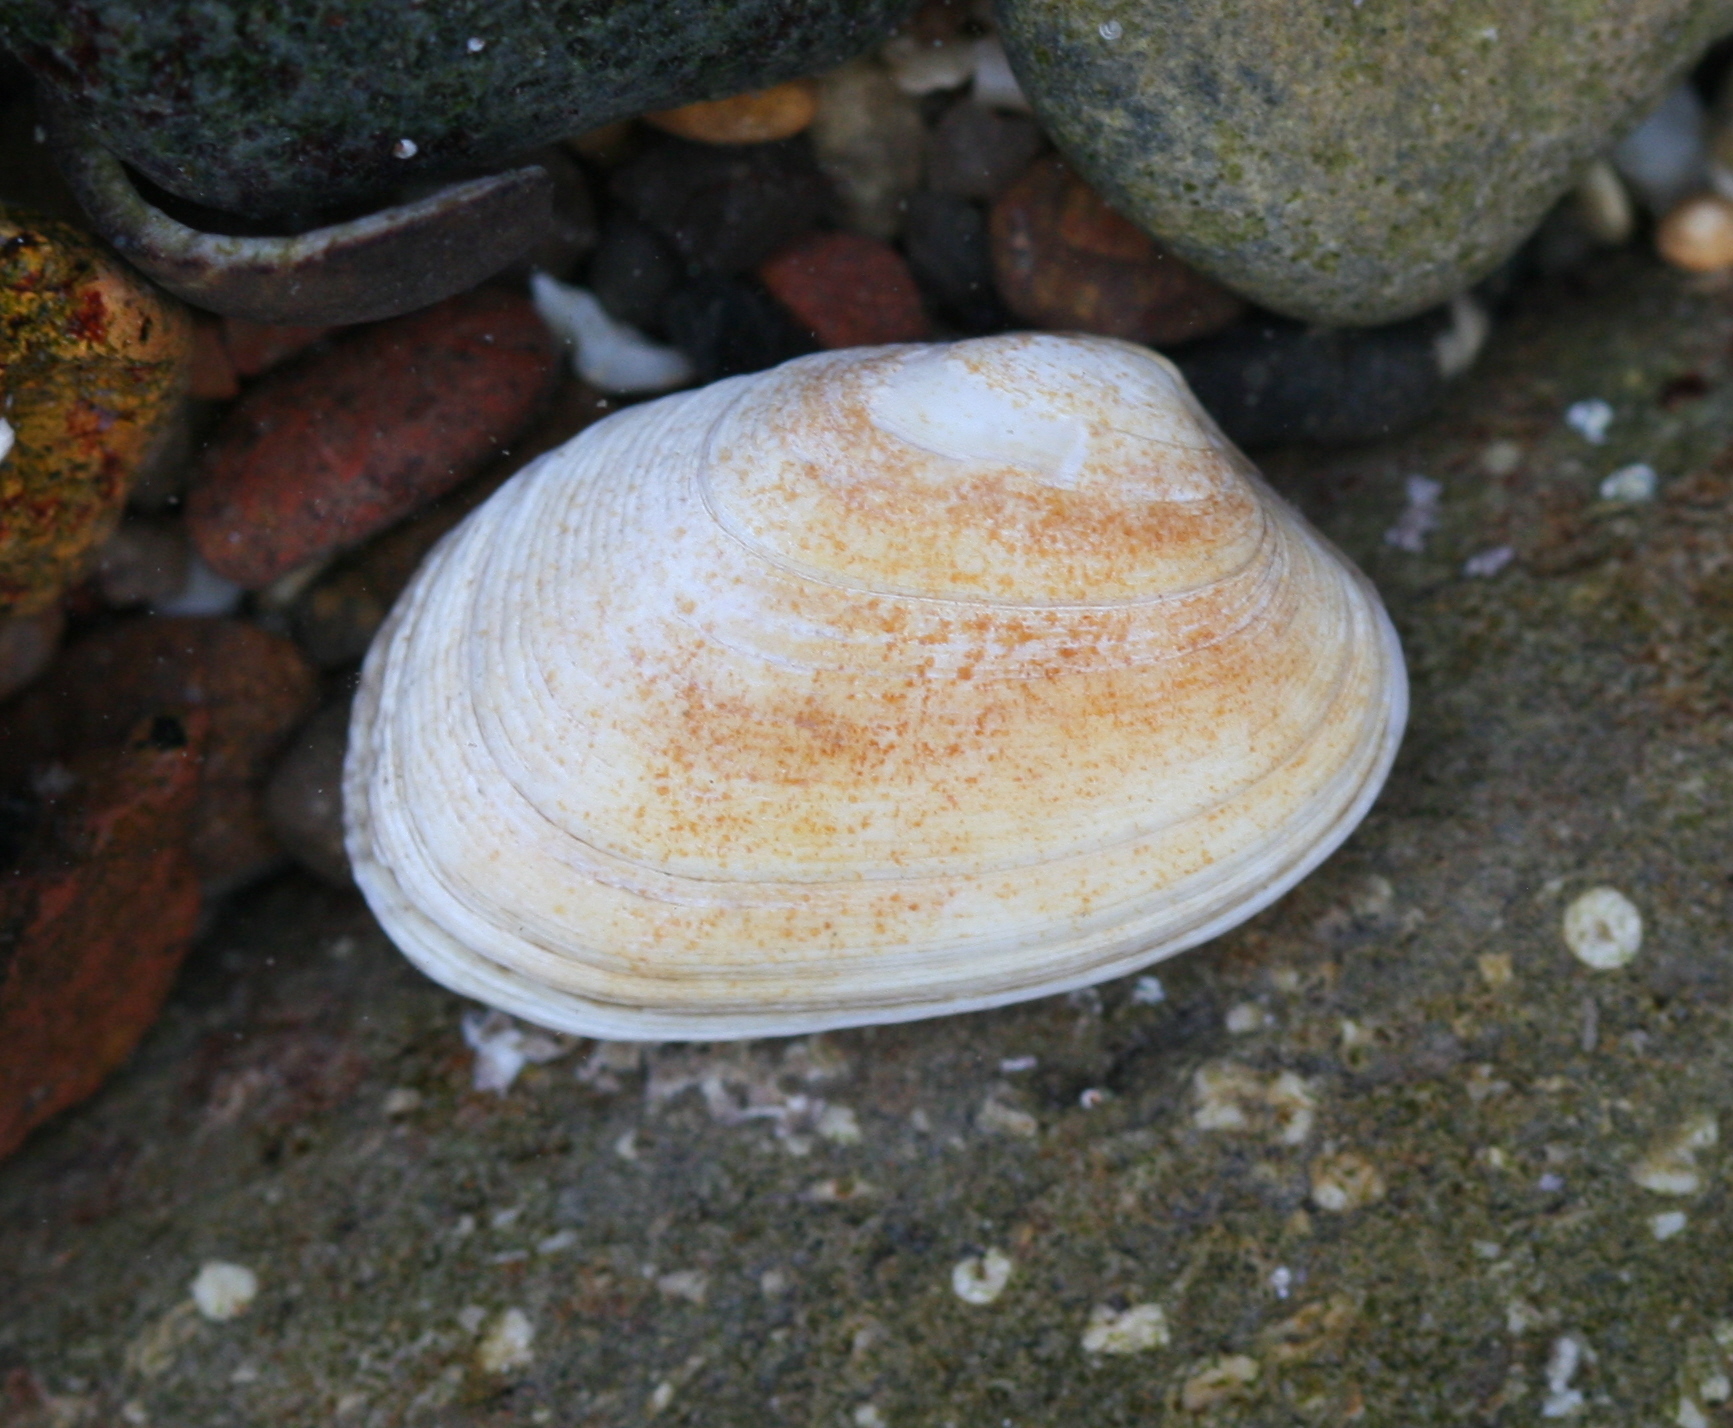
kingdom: Animalia
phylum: Mollusca
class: Bivalvia
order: Venerida
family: Veneridae
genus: Venerupis
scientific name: Venerupis corrugata
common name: Pullet carpet shell
